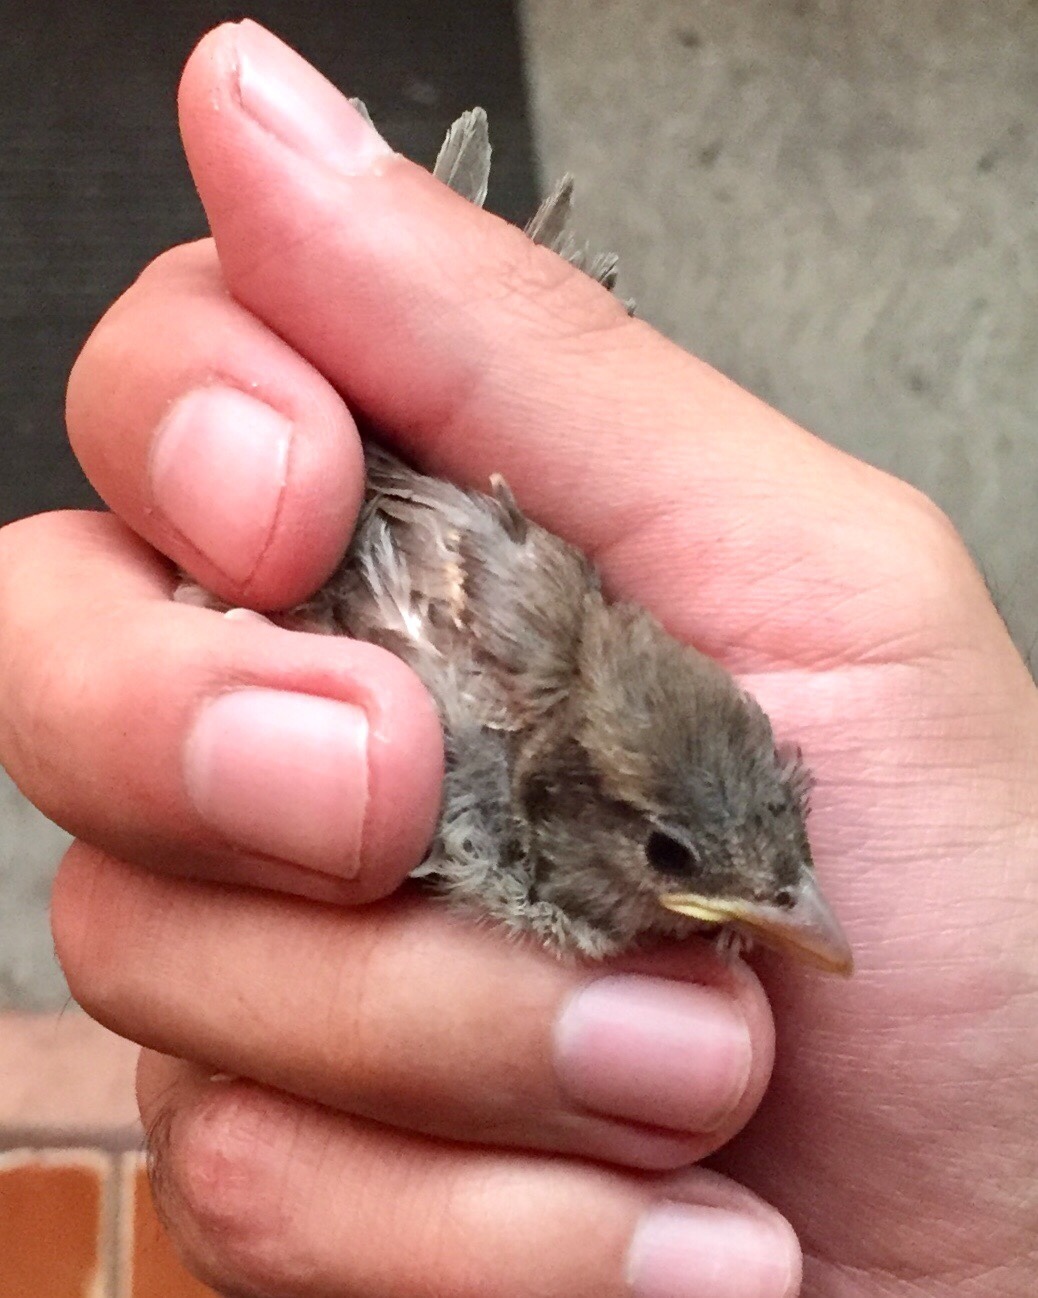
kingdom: Animalia
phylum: Chordata
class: Aves
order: Passeriformes
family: Passeridae
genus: Passer
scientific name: Passer domesticus
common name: House sparrow
